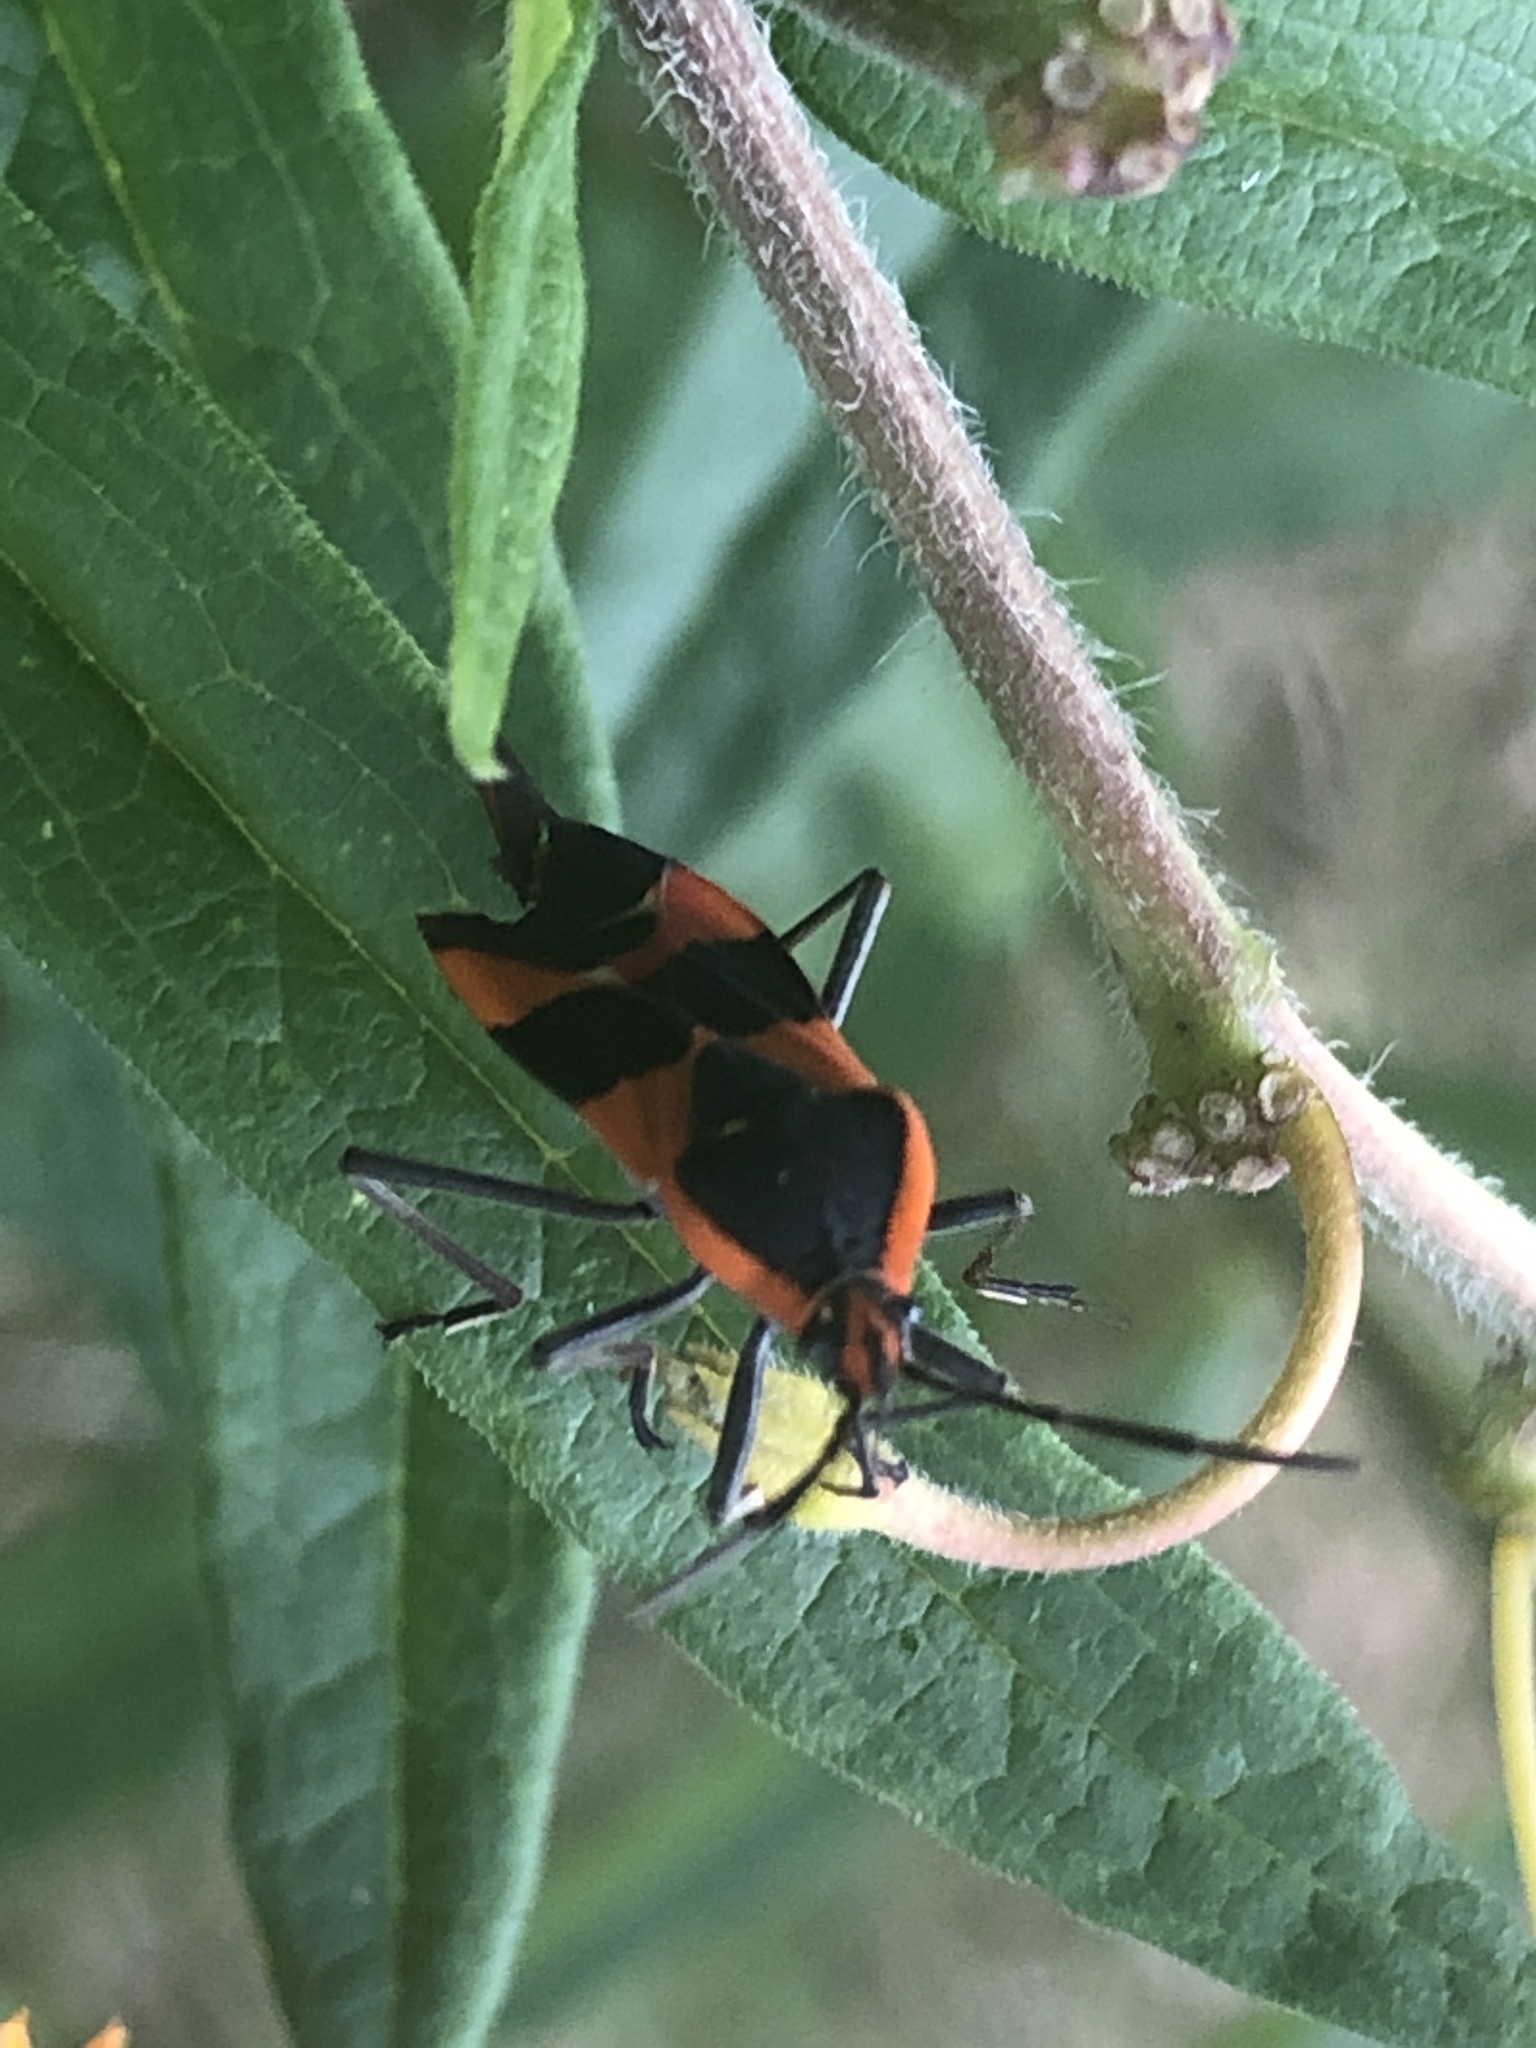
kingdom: Animalia
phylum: Arthropoda
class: Insecta
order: Hemiptera
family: Lygaeidae
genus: Oncopeltus
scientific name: Oncopeltus fasciatus
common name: Large milkweed bug
